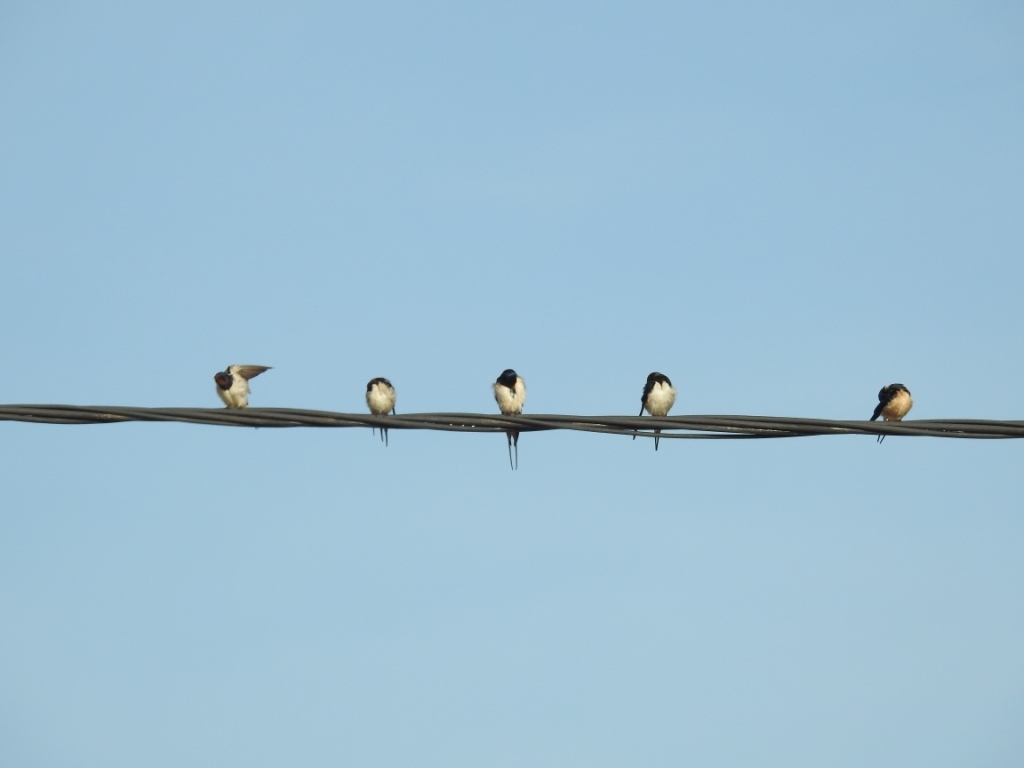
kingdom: Animalia
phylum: Chordata
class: Aves
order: Passeriformes
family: Hirundinidae
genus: Hirundo
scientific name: Hirundo rustica
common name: Barn swallow
